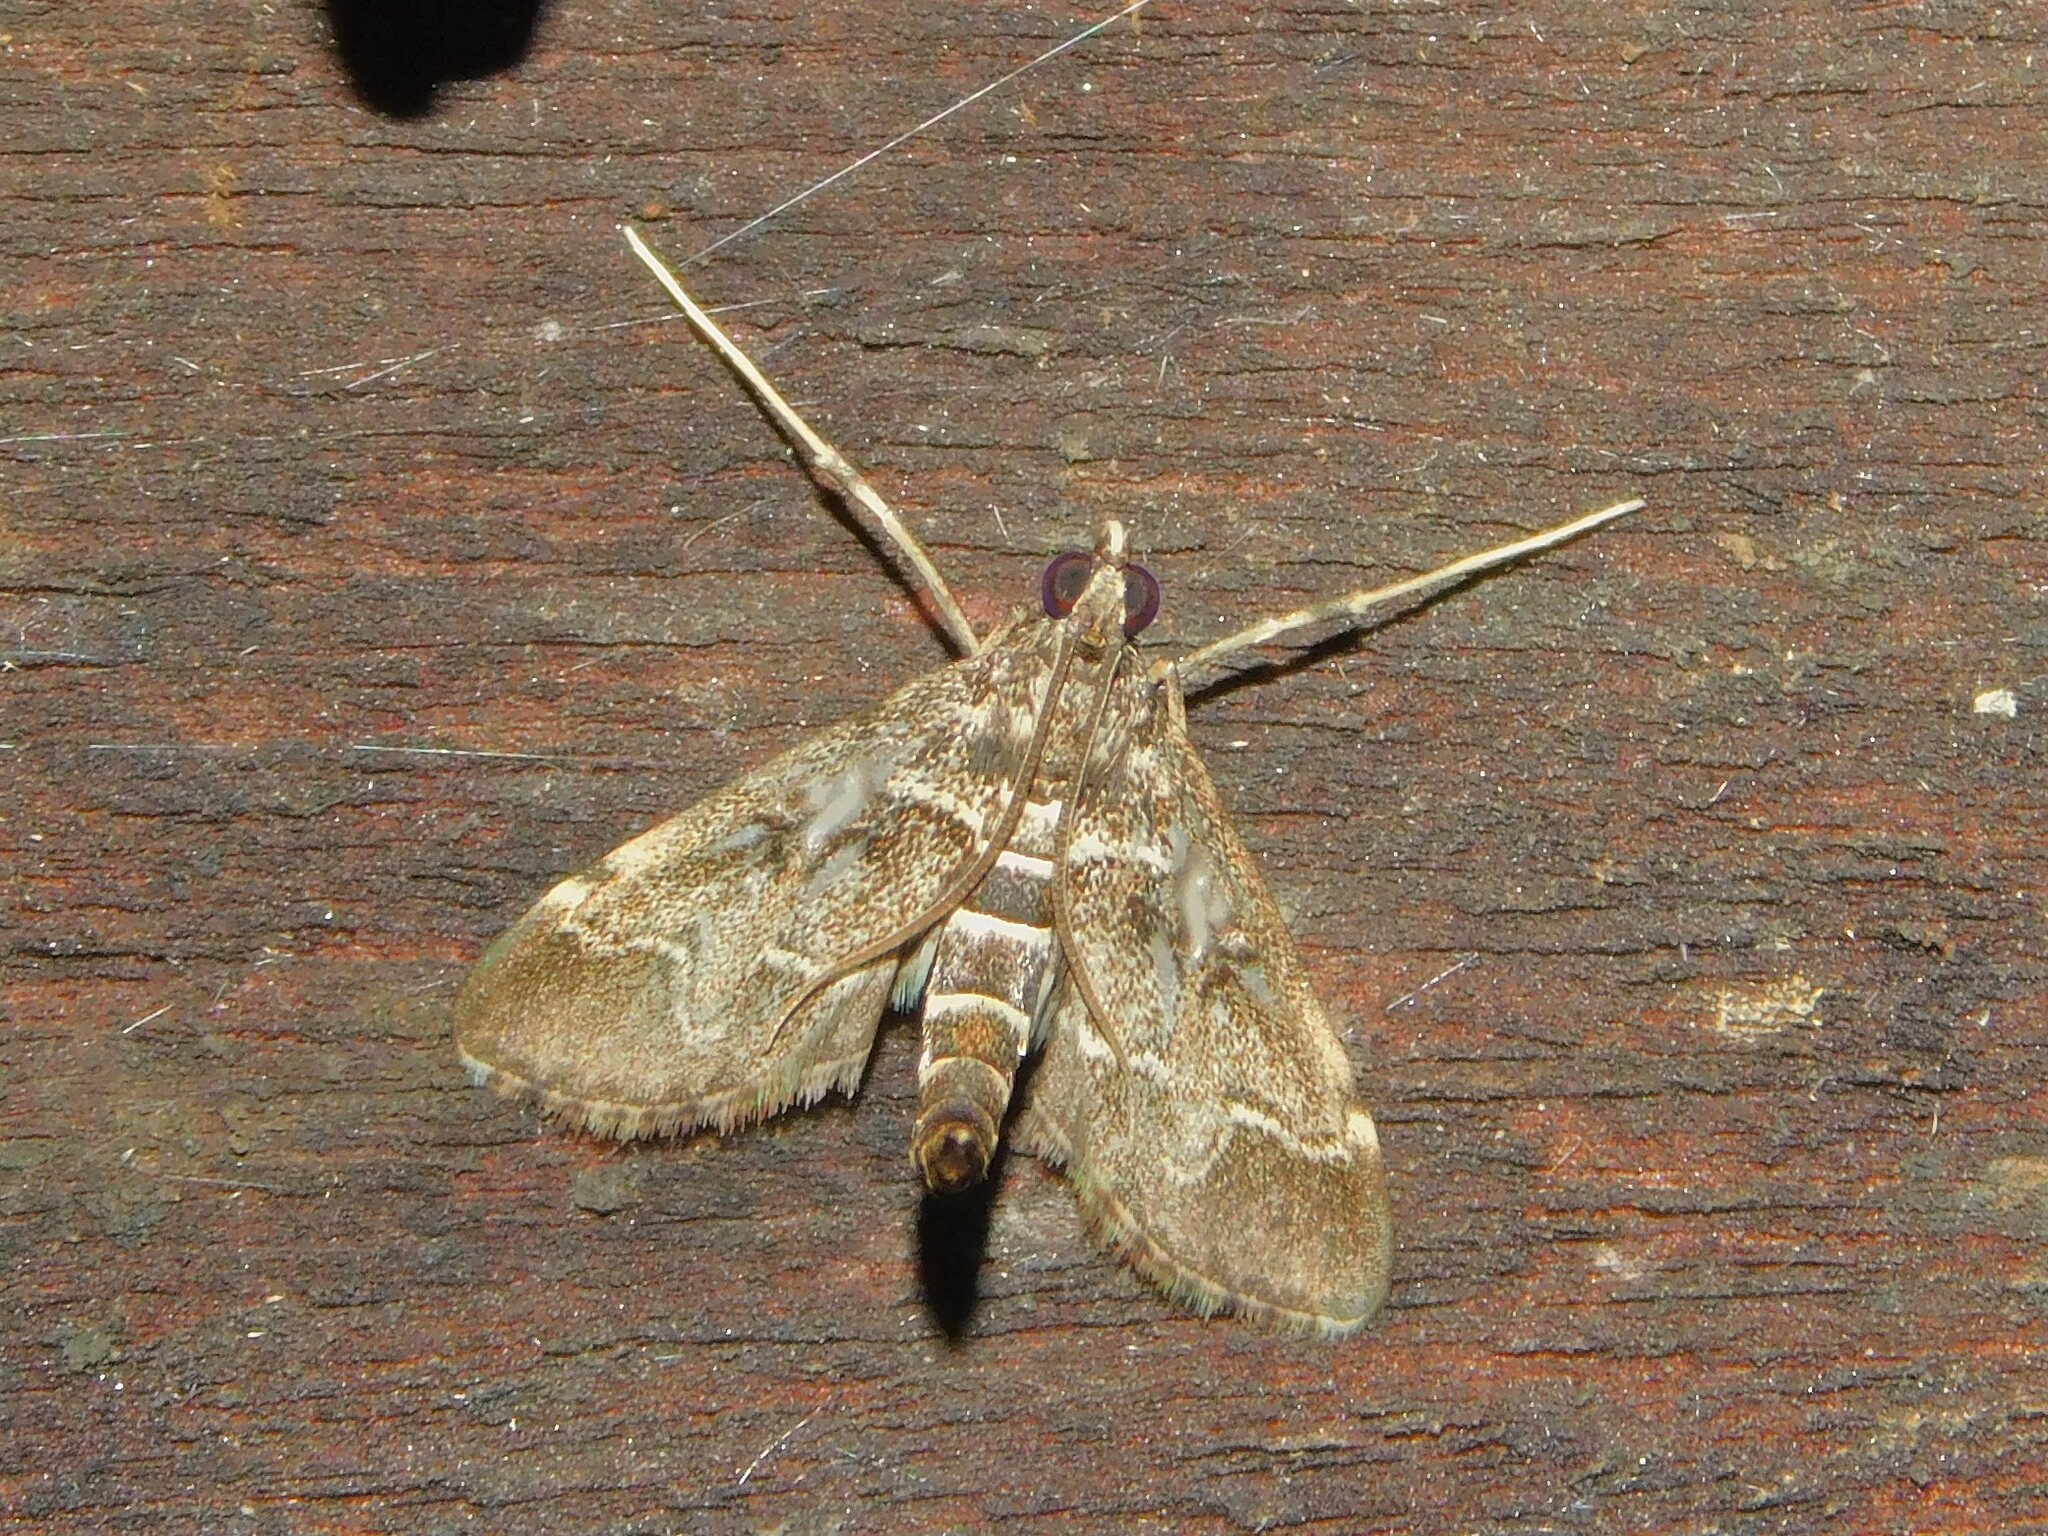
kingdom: Animalia
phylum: Arthropoda
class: Insecta
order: Lepidoptera
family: Crambidae
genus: Duponchelia
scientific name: Duponchelia fovealis
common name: Crambid moth
